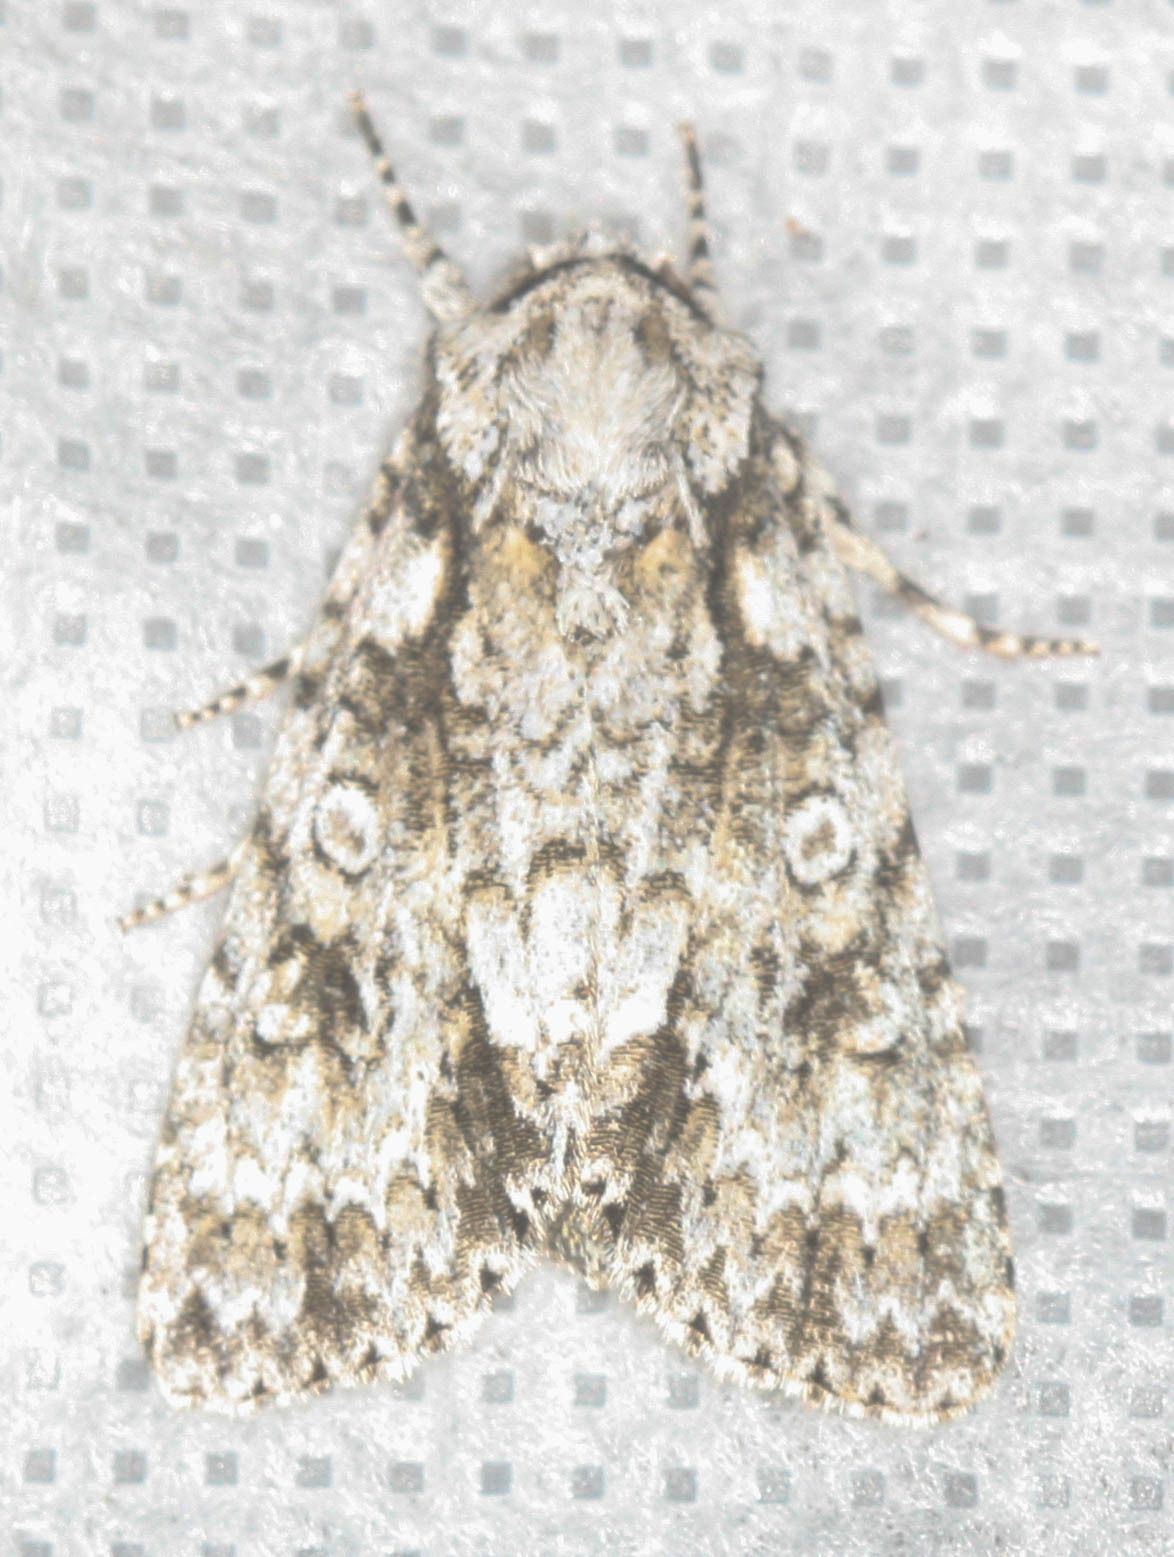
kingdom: Animalia
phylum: Arthropoda
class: Insecta
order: Lepidoptera
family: Noctuidae
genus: Acronicta
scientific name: Acronicta marmorata
